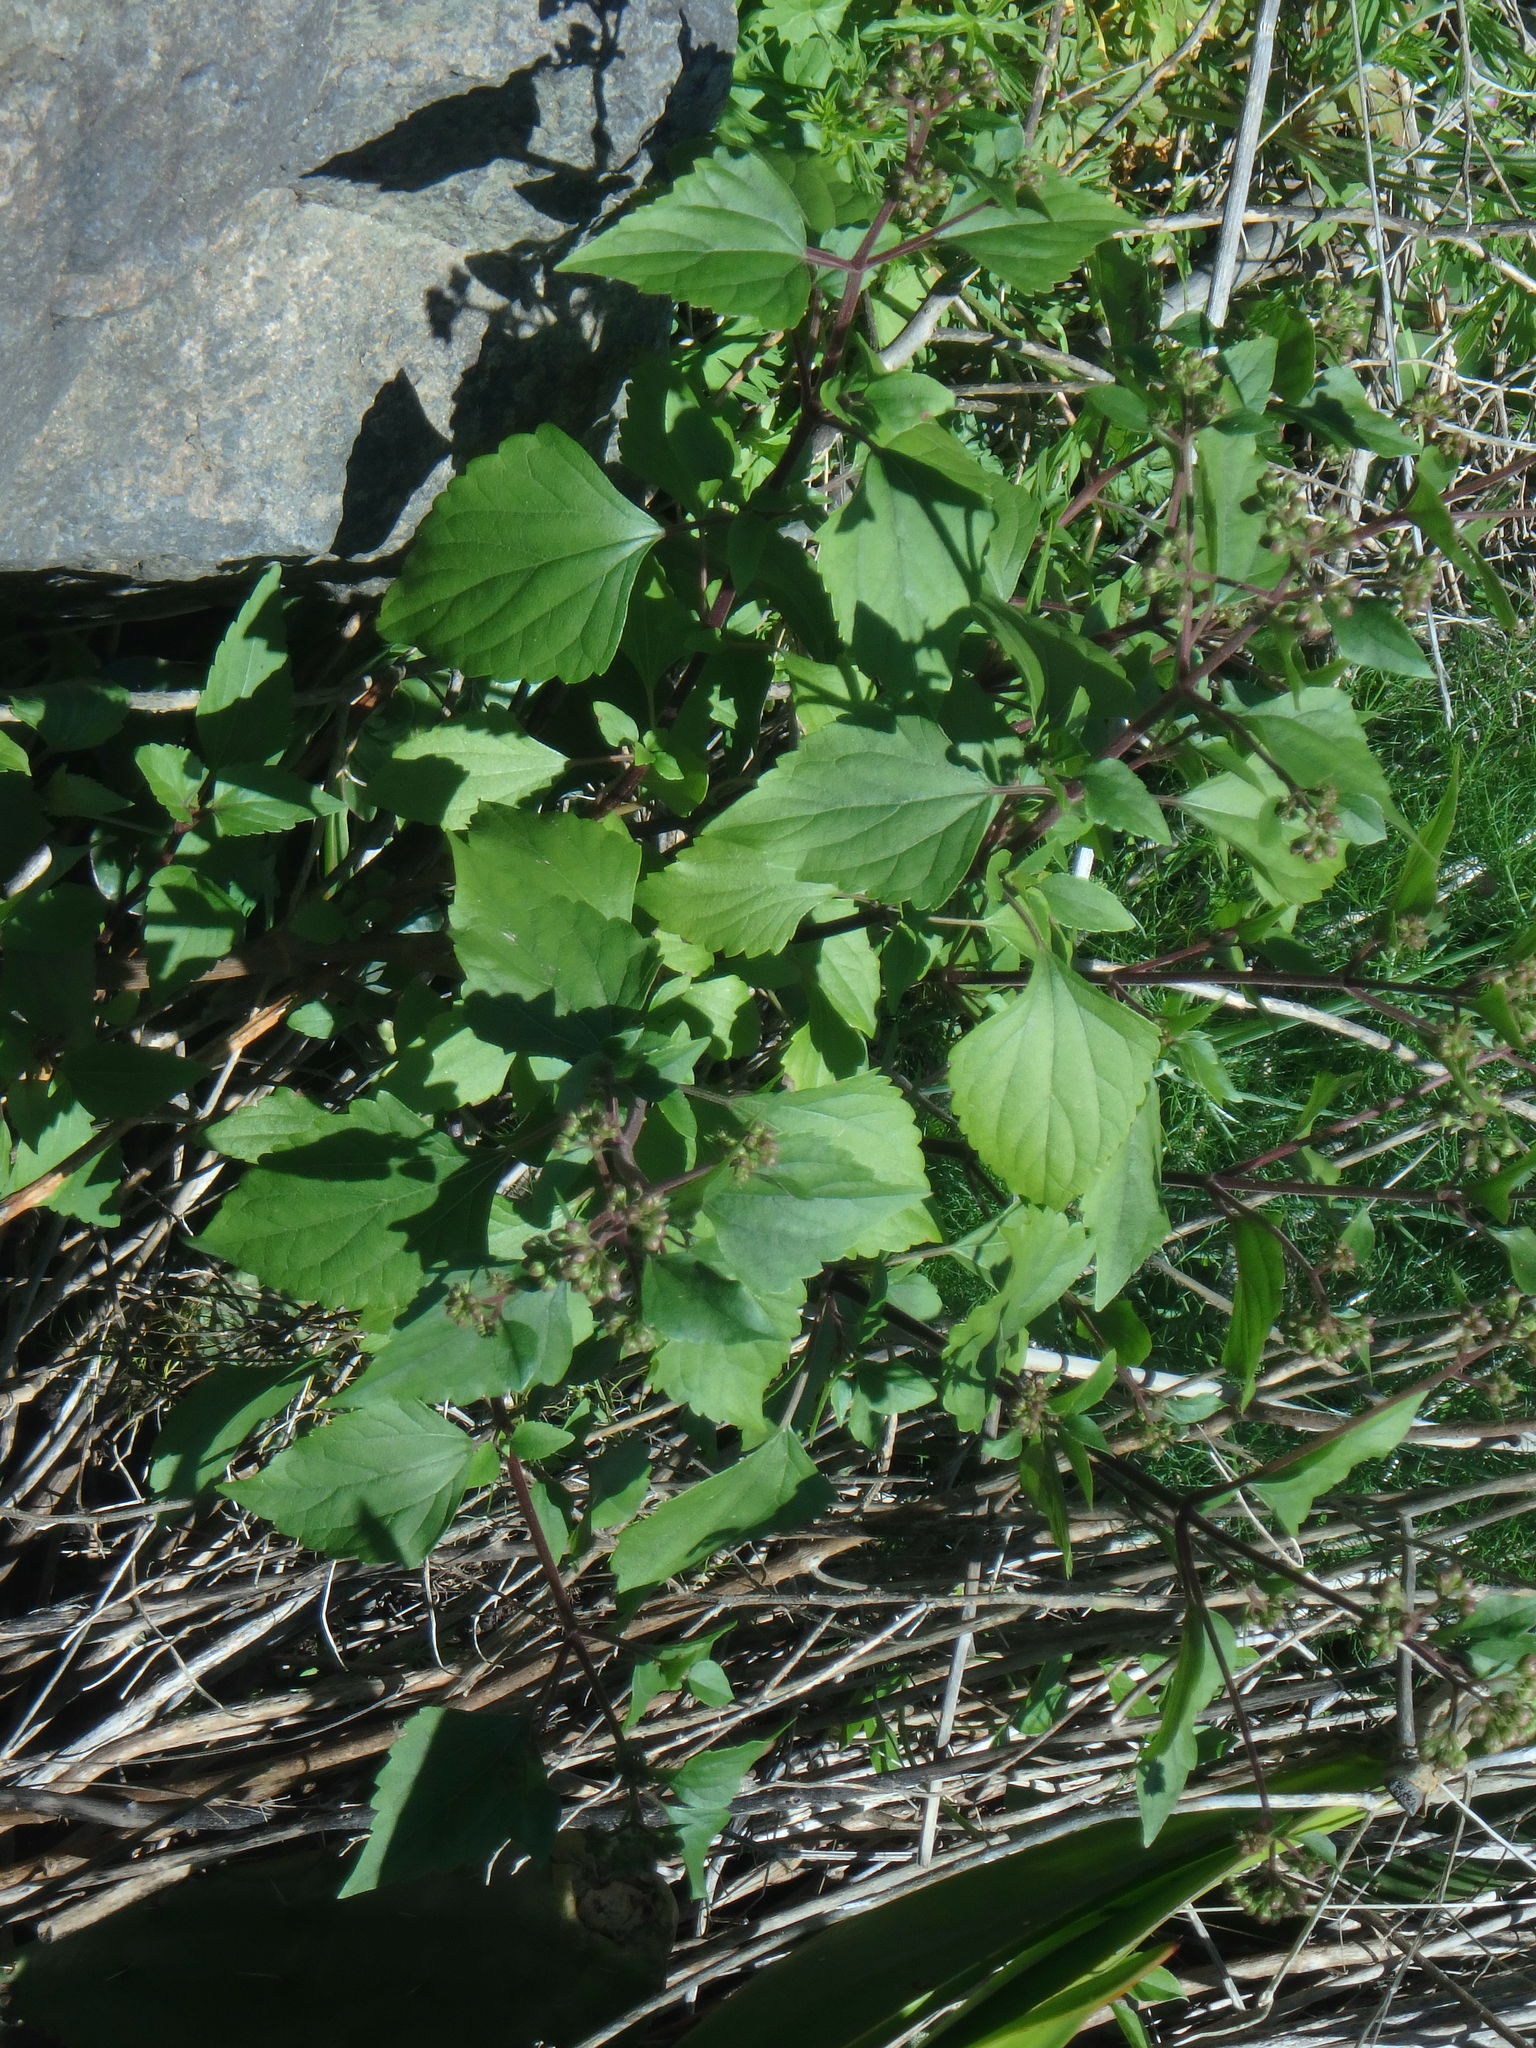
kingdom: Plantae
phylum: Tracheophyta
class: Magnoliopsida
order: Asterales
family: Asteraceae
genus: Ageratina
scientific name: Ageratina adenophora
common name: Sticky snakeroot
